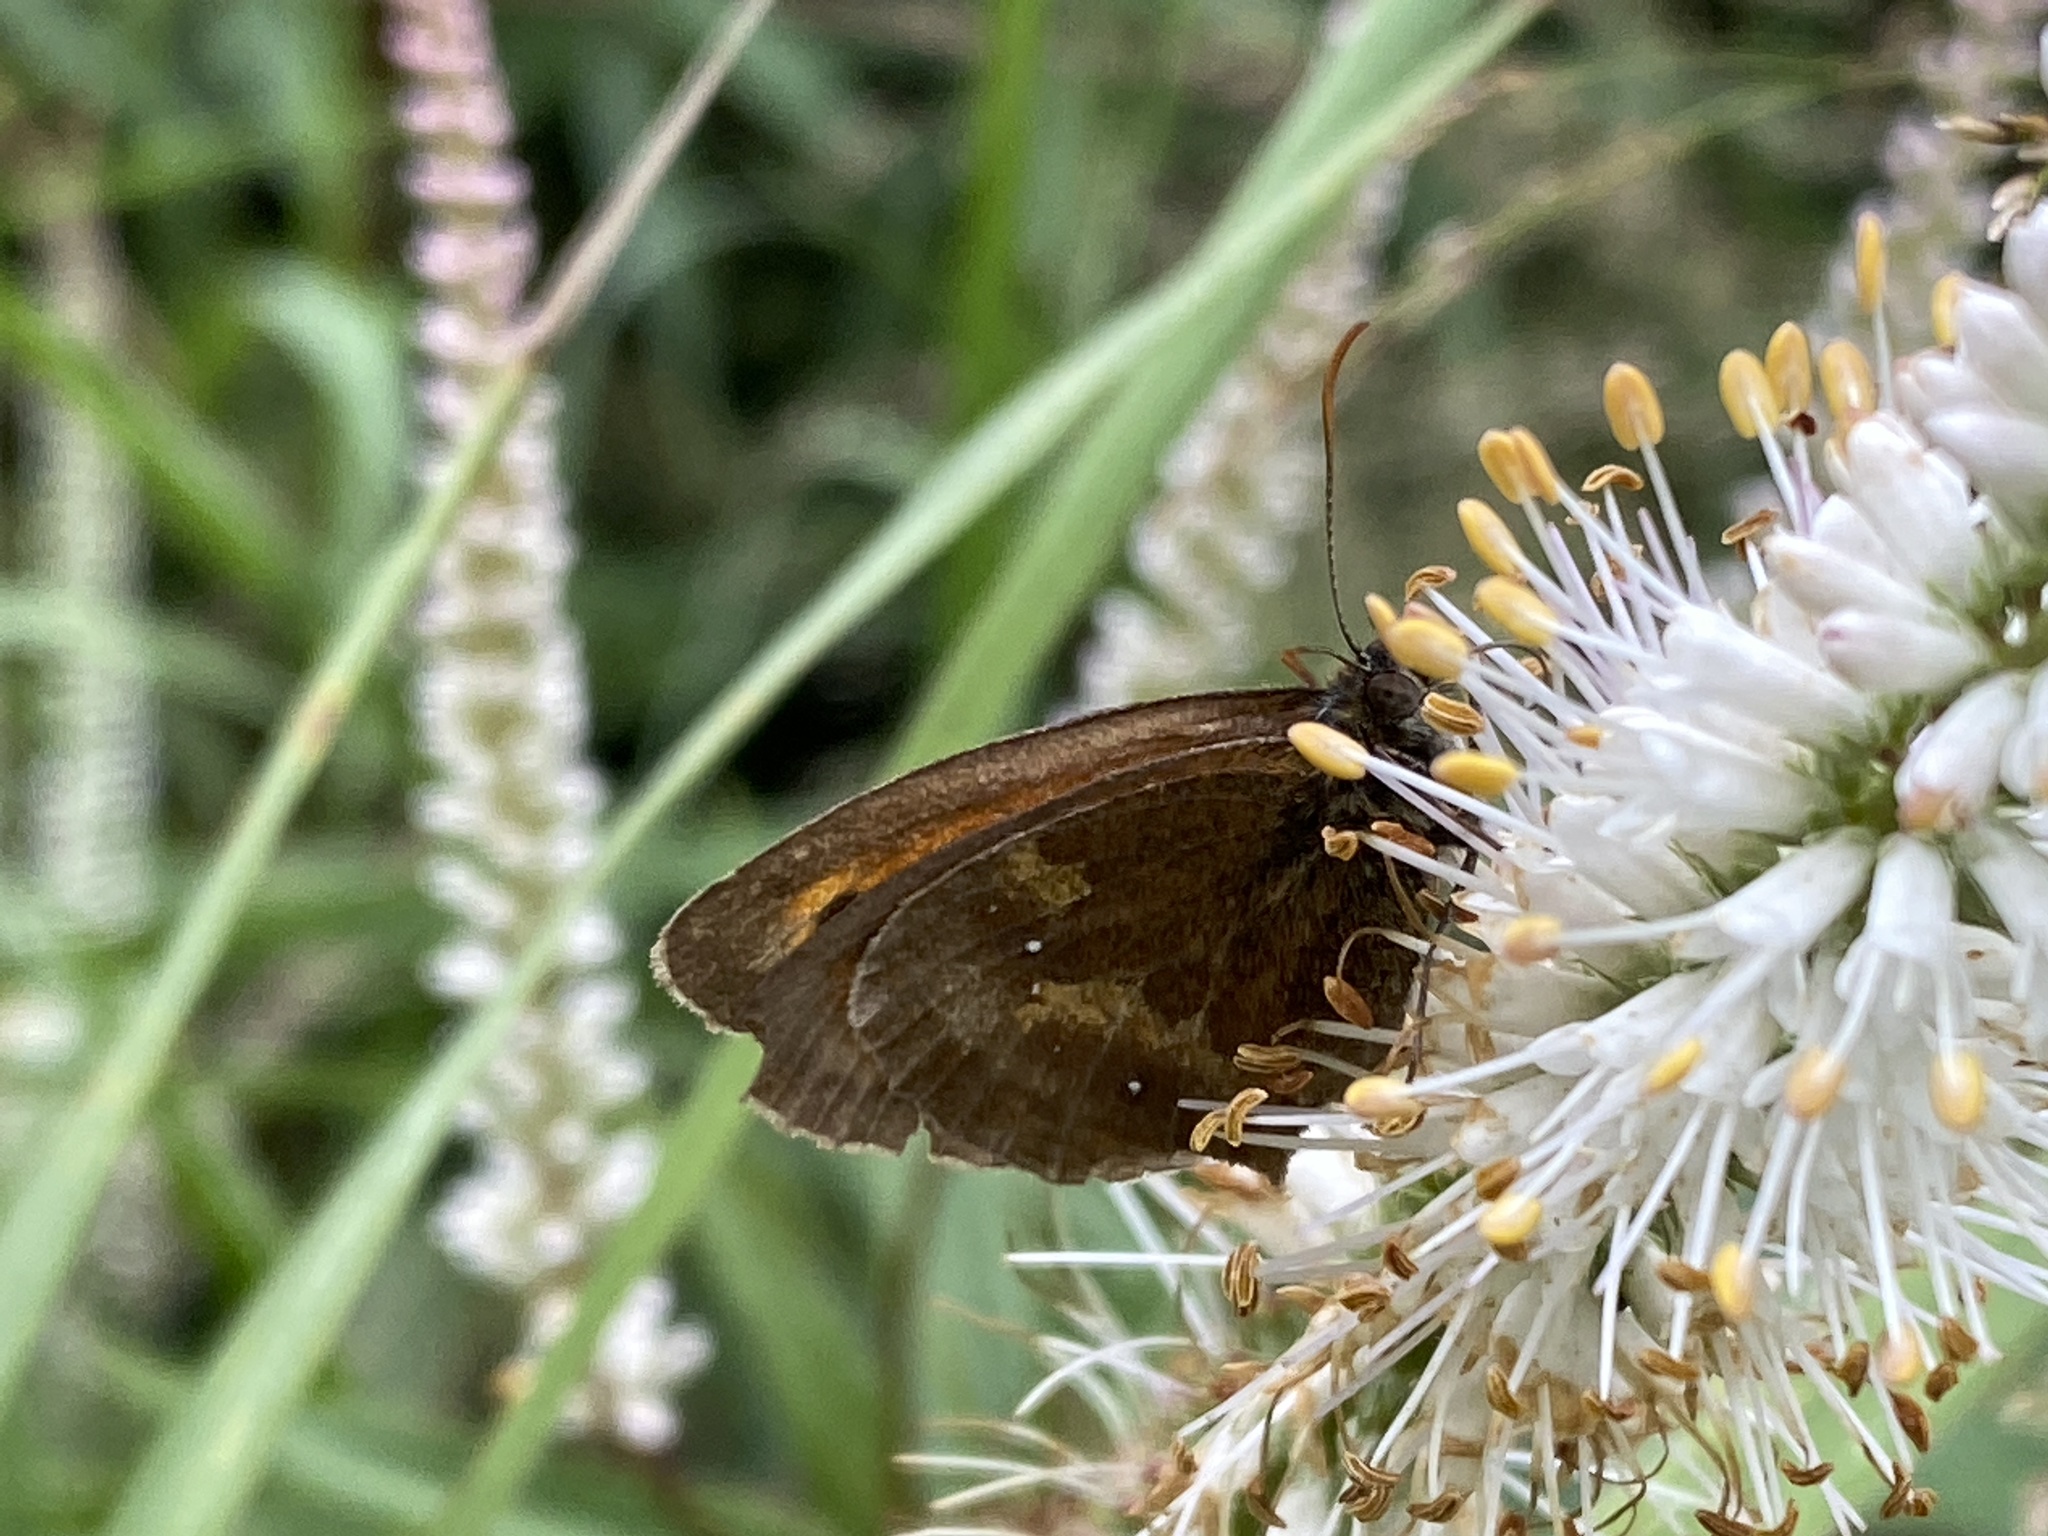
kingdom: Animalia
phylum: Arthropoda
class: Insecta
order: Lepidoptera
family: Nymphalidae
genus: Pyronia
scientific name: Pyronia tithonus
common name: Gatekeeper
